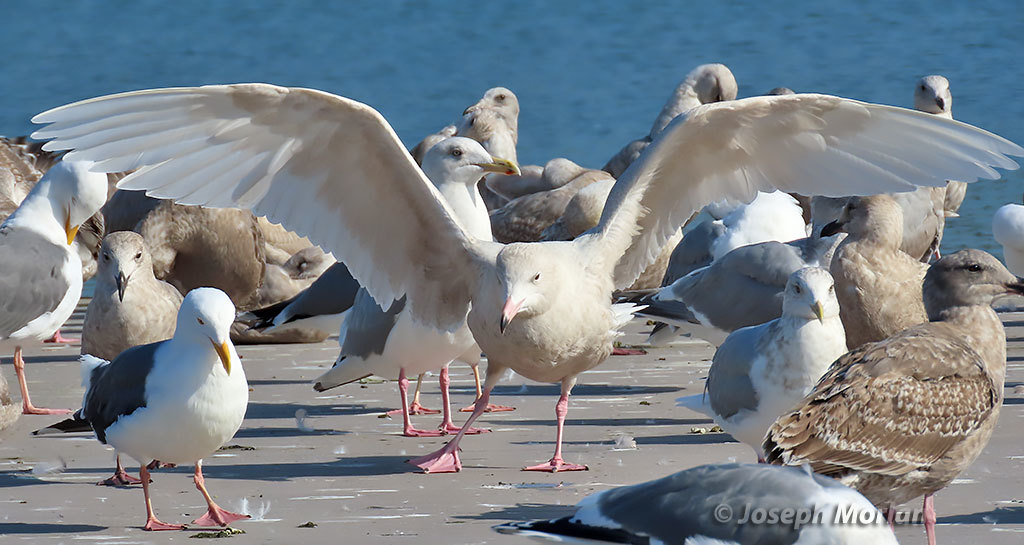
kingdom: Animalia
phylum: Chordata
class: Aves
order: Charadriiformes
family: Laridae
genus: Larus
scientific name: Larus hyperboreus
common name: Glaucous gull
